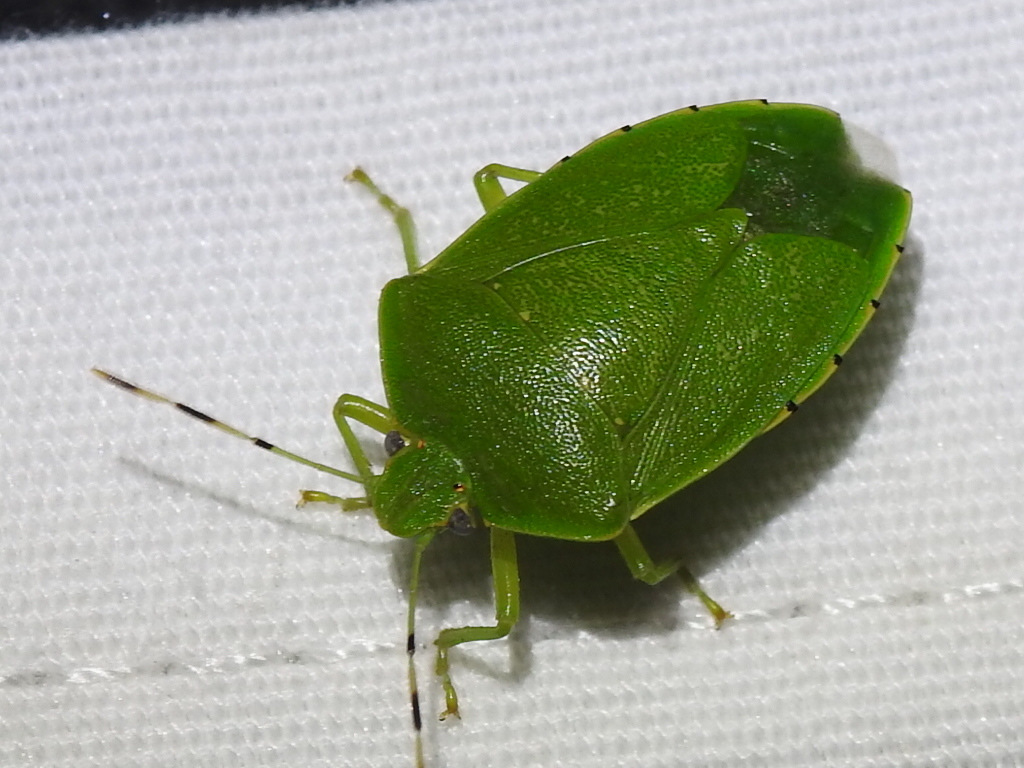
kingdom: Animalia
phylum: Arthropoda
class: Insecta
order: Hemiptera
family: Pentatomidae
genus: Chinavia
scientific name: Chinavia hilaris
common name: Green stink bug
